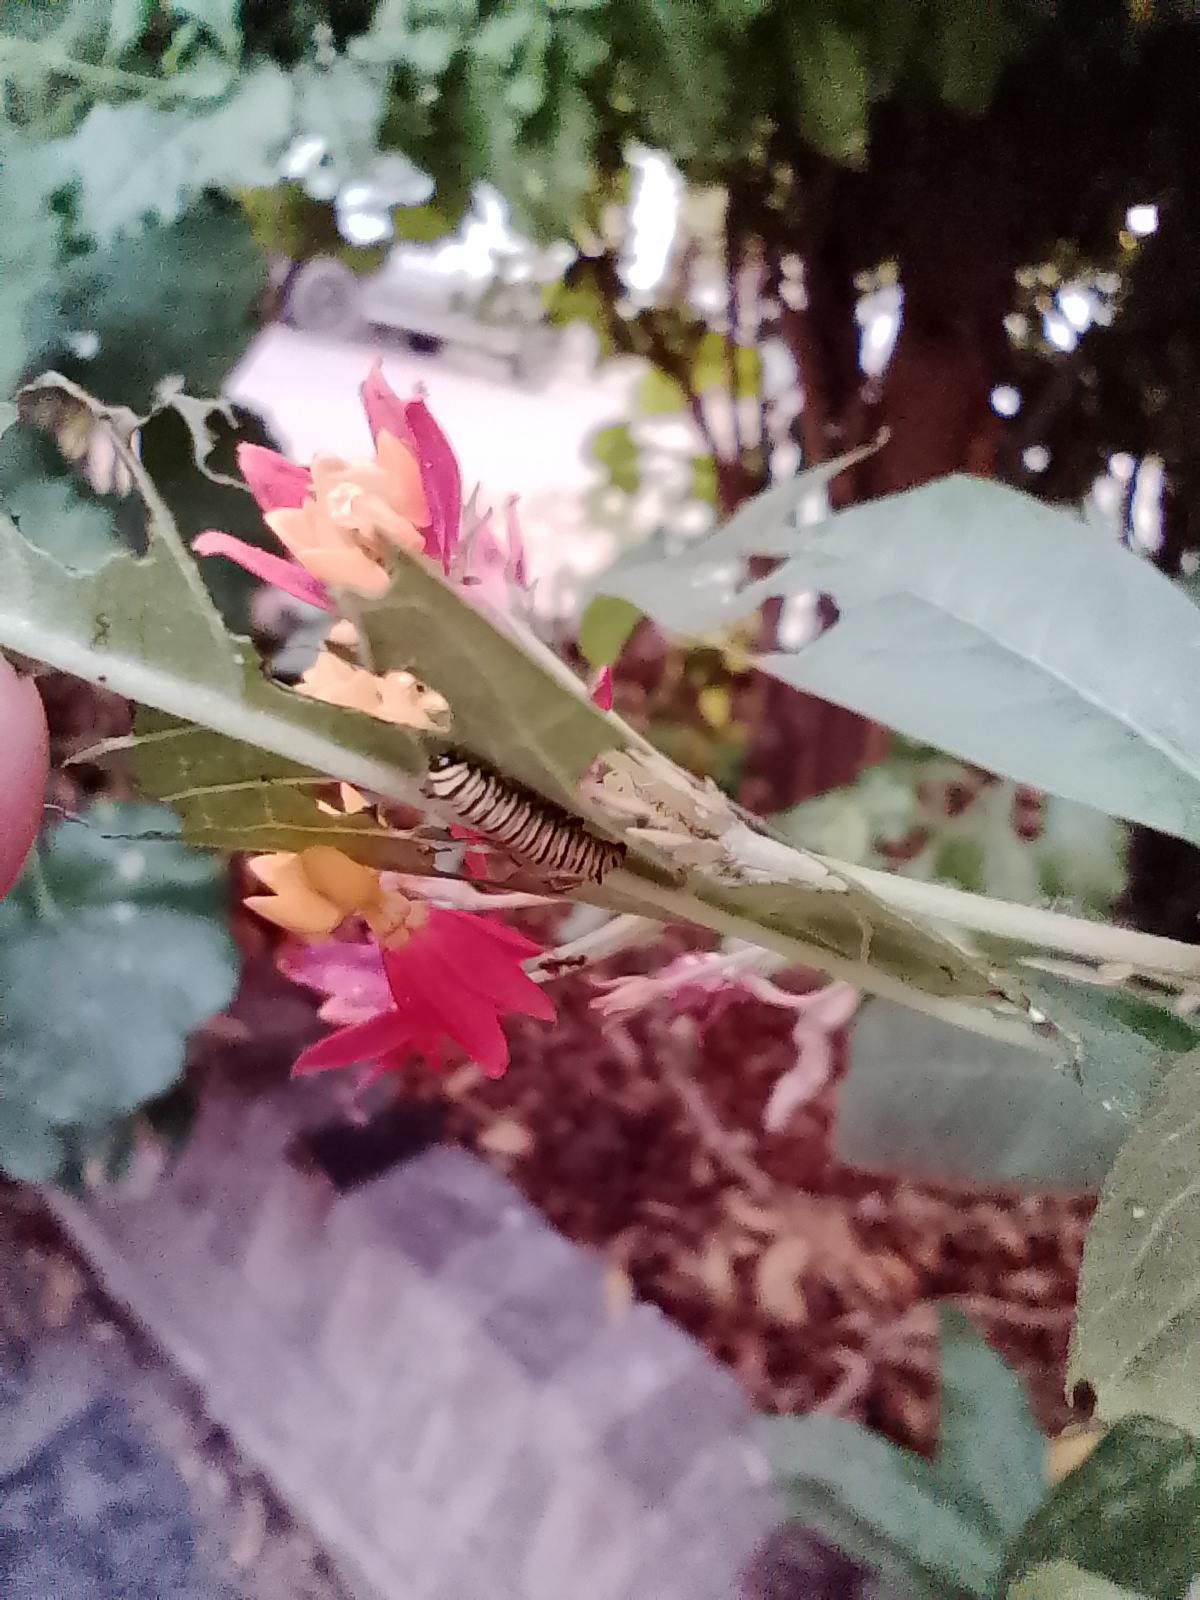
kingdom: Animalia
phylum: Arthropoda
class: Insecta
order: Lepidoptera
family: Nymphalidae
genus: Danaus
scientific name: Danaus erippus
